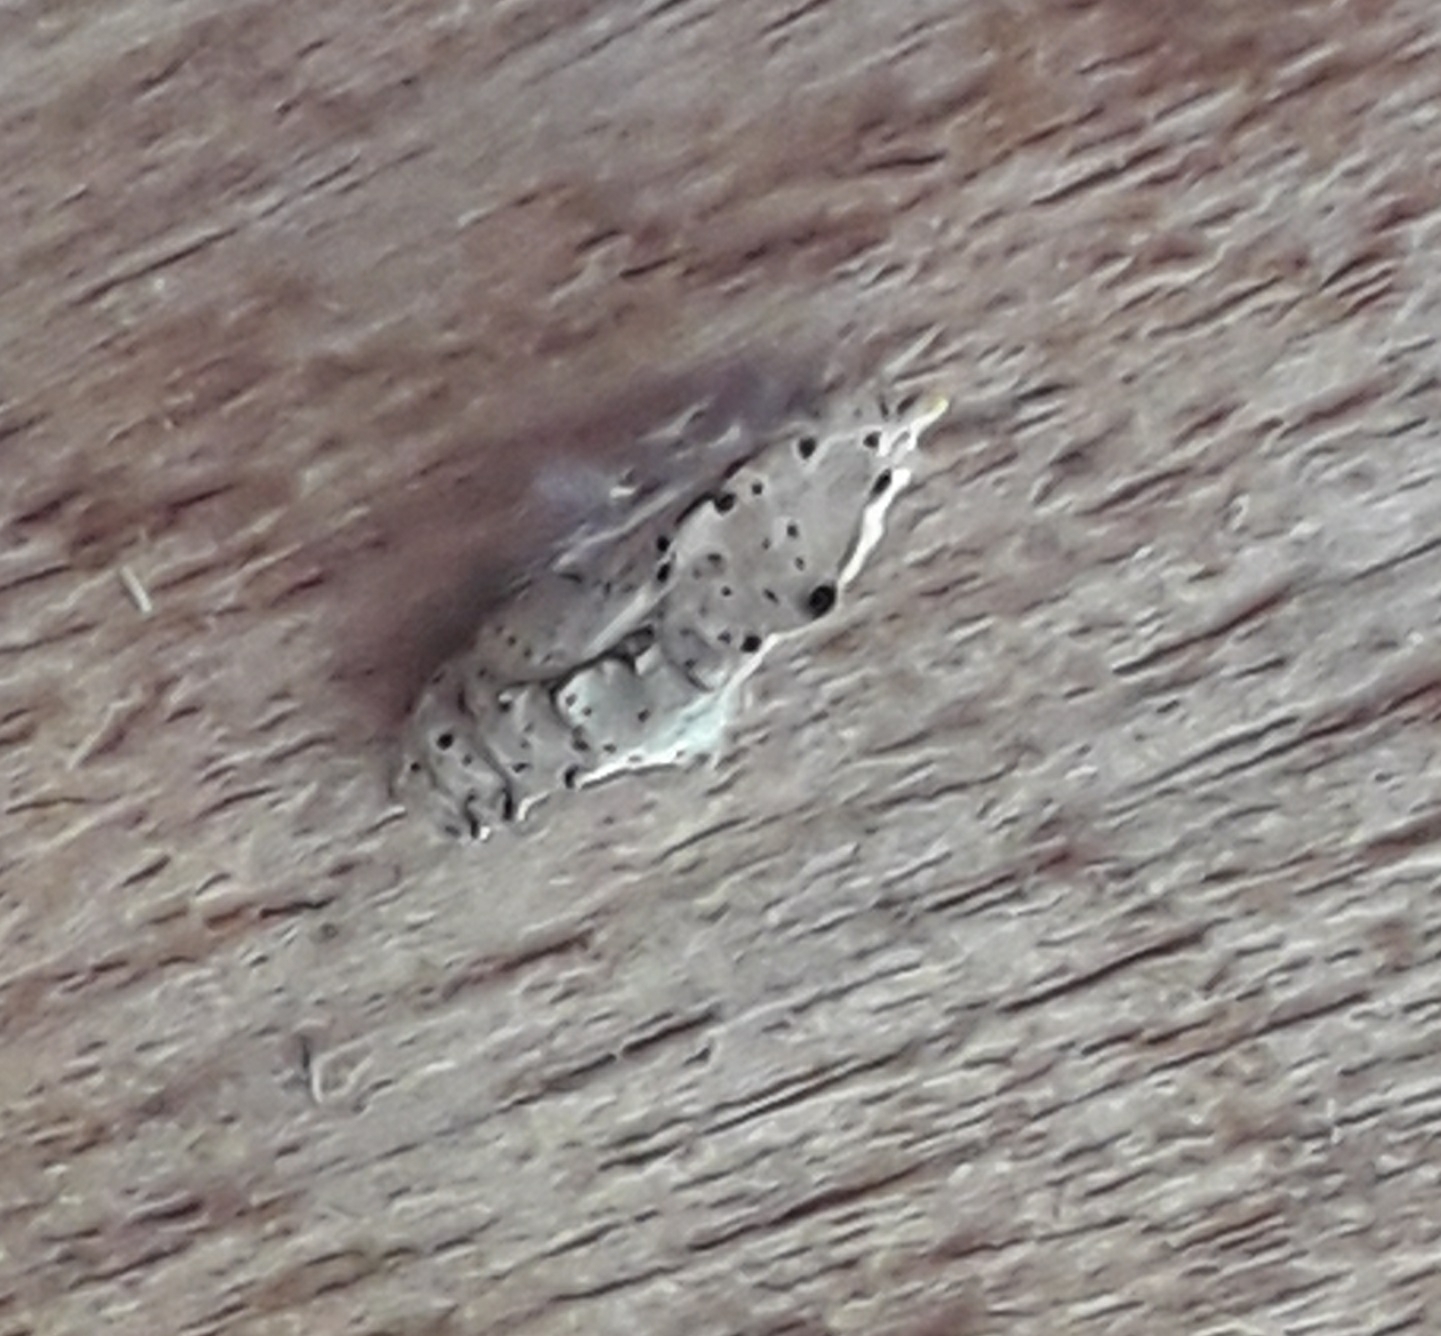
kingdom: Animalia
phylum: Arthropoda
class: Insecta
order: Lepidoptera
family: Pieridae
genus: Pieris
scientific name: Pieris brassicae
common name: Large white
